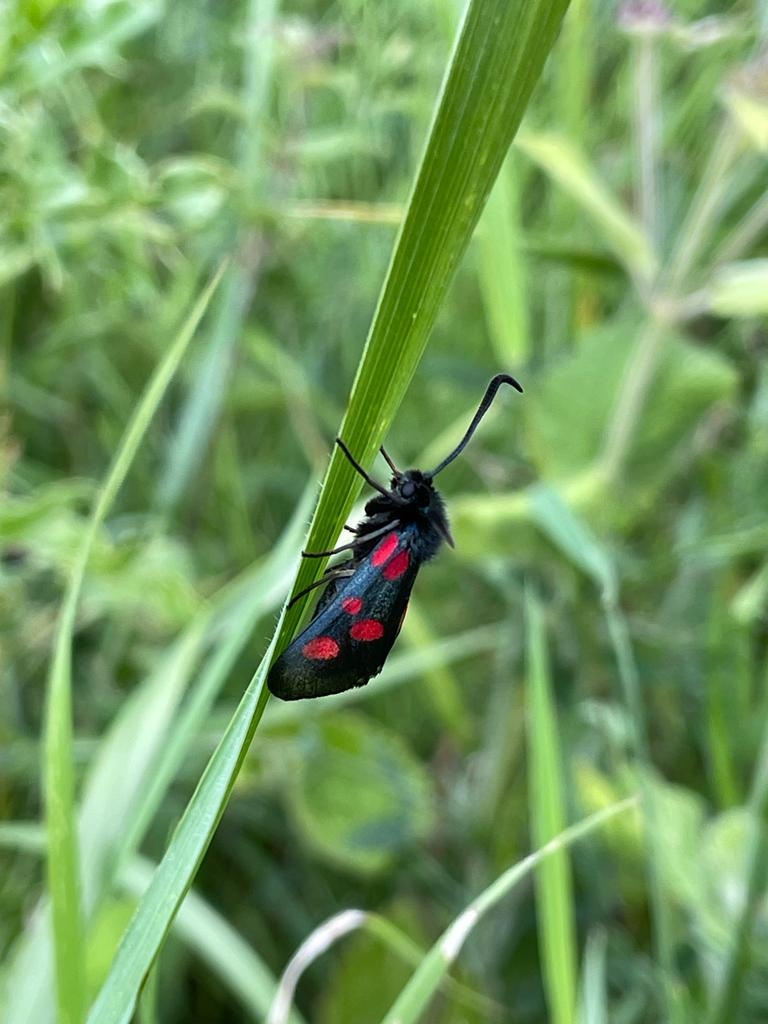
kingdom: Animalia
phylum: Arthropoda
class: Insecta
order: Lepidoptera
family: Zygaenidae
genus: Zygaena
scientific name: Zygaena lonicerae
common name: Narrow-bordered five-spot burnet
